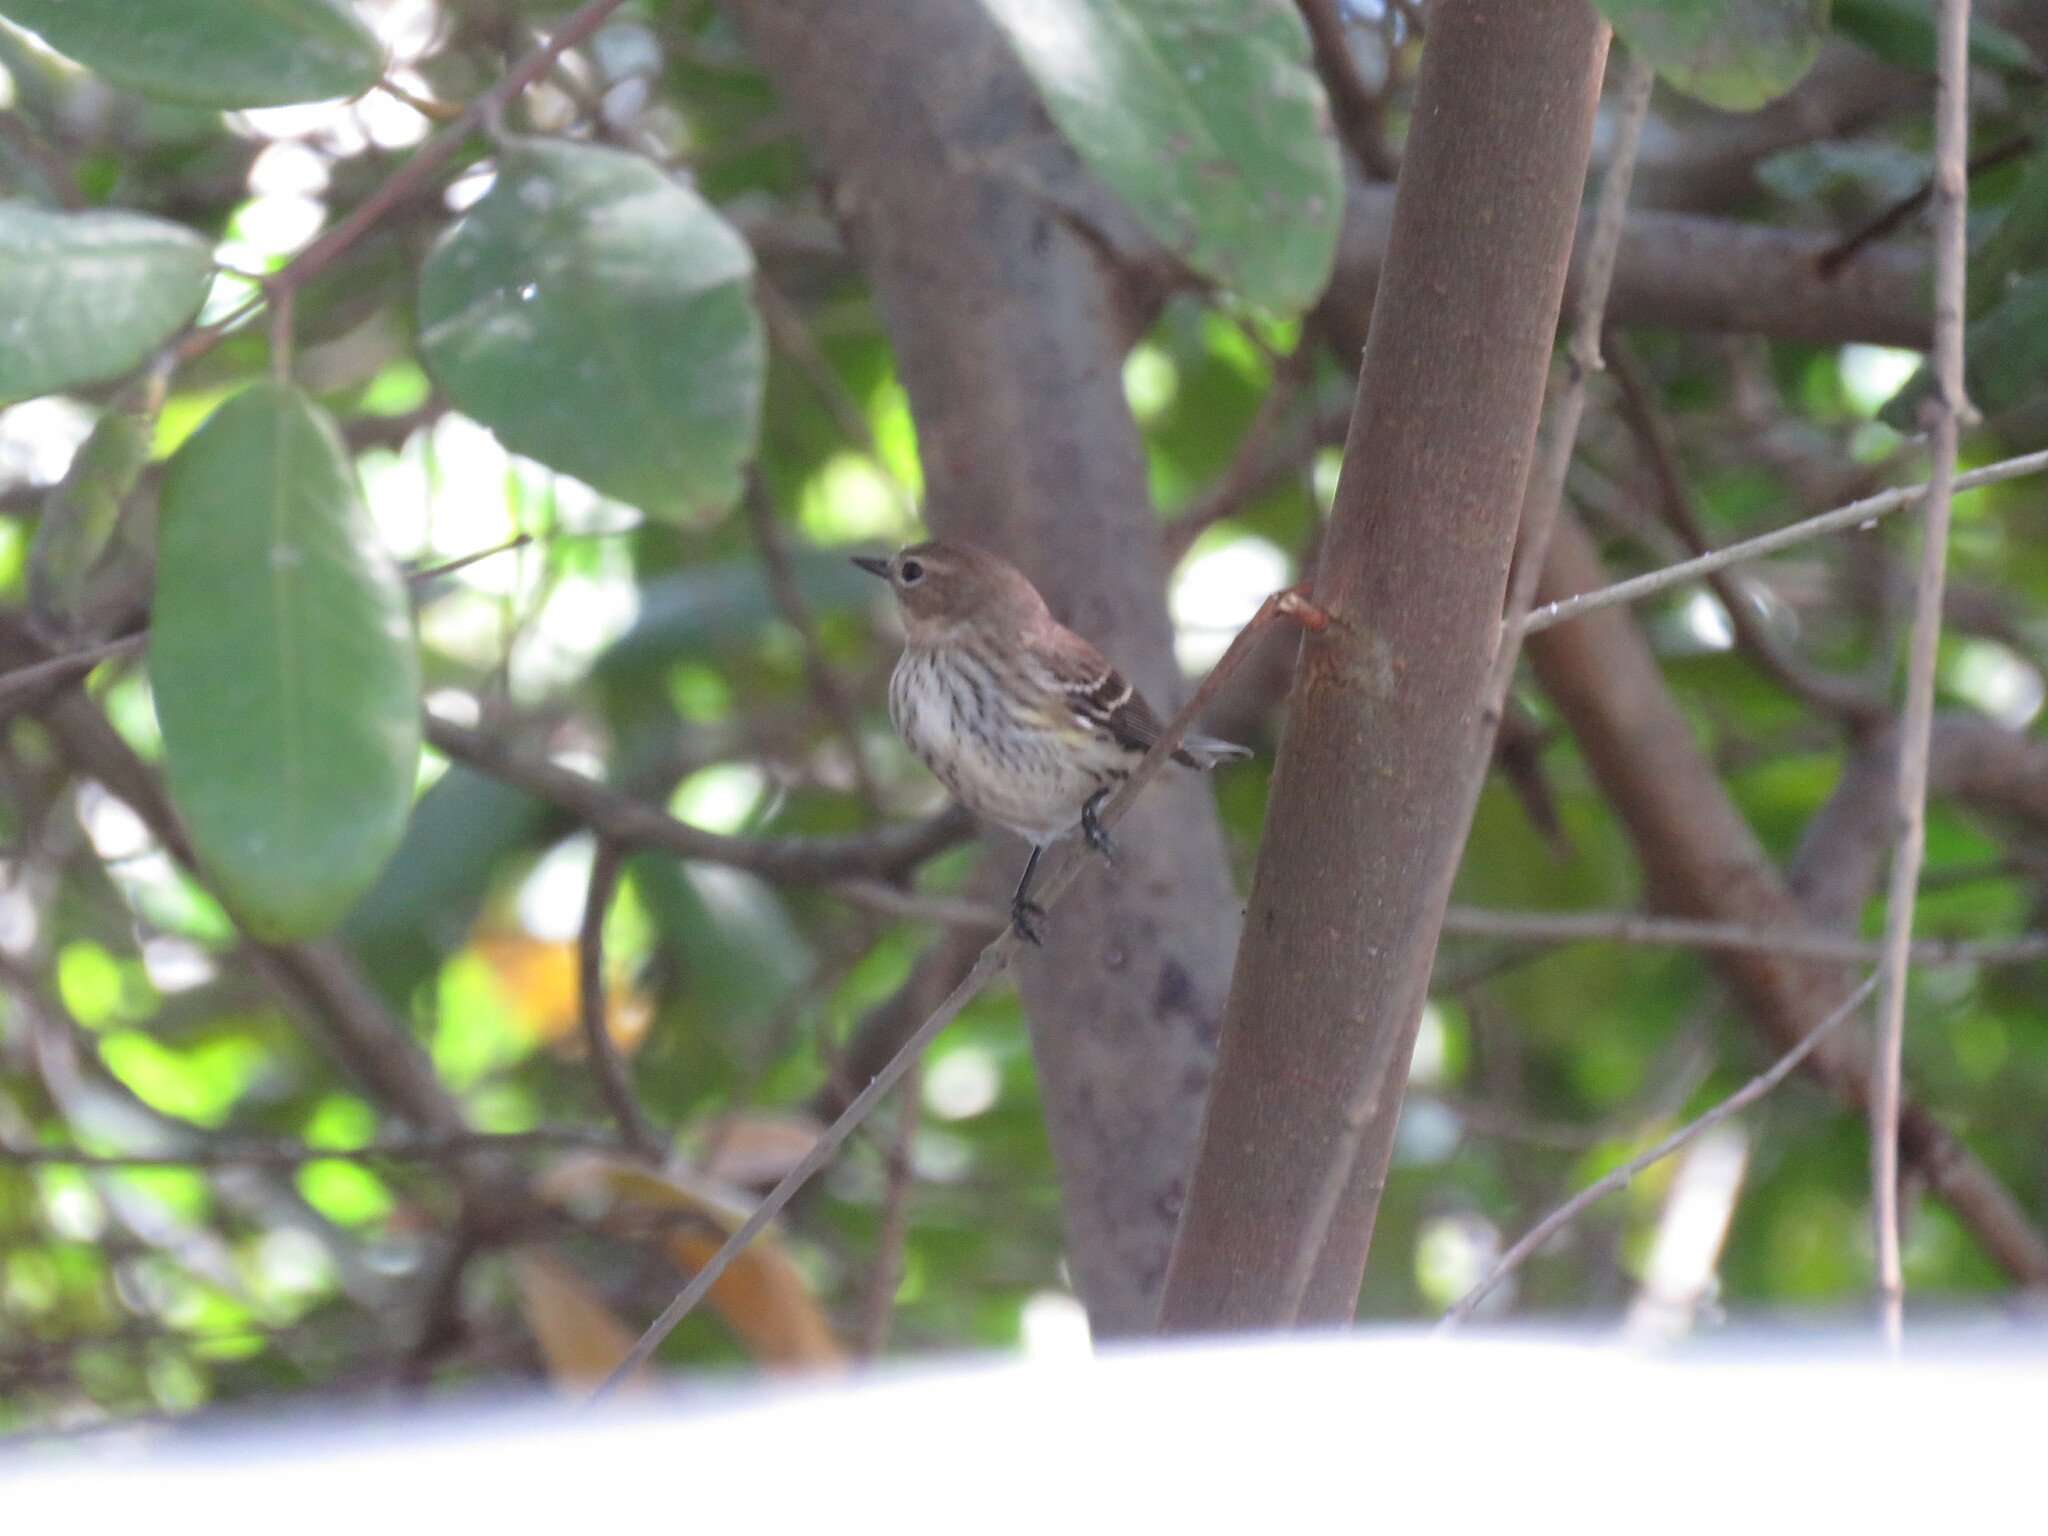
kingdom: Animalia
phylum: Chordata
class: Aves
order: Passeriformes
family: Parulidae
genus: Setophaga
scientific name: Setophaga coronata
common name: Myrtle warbler
